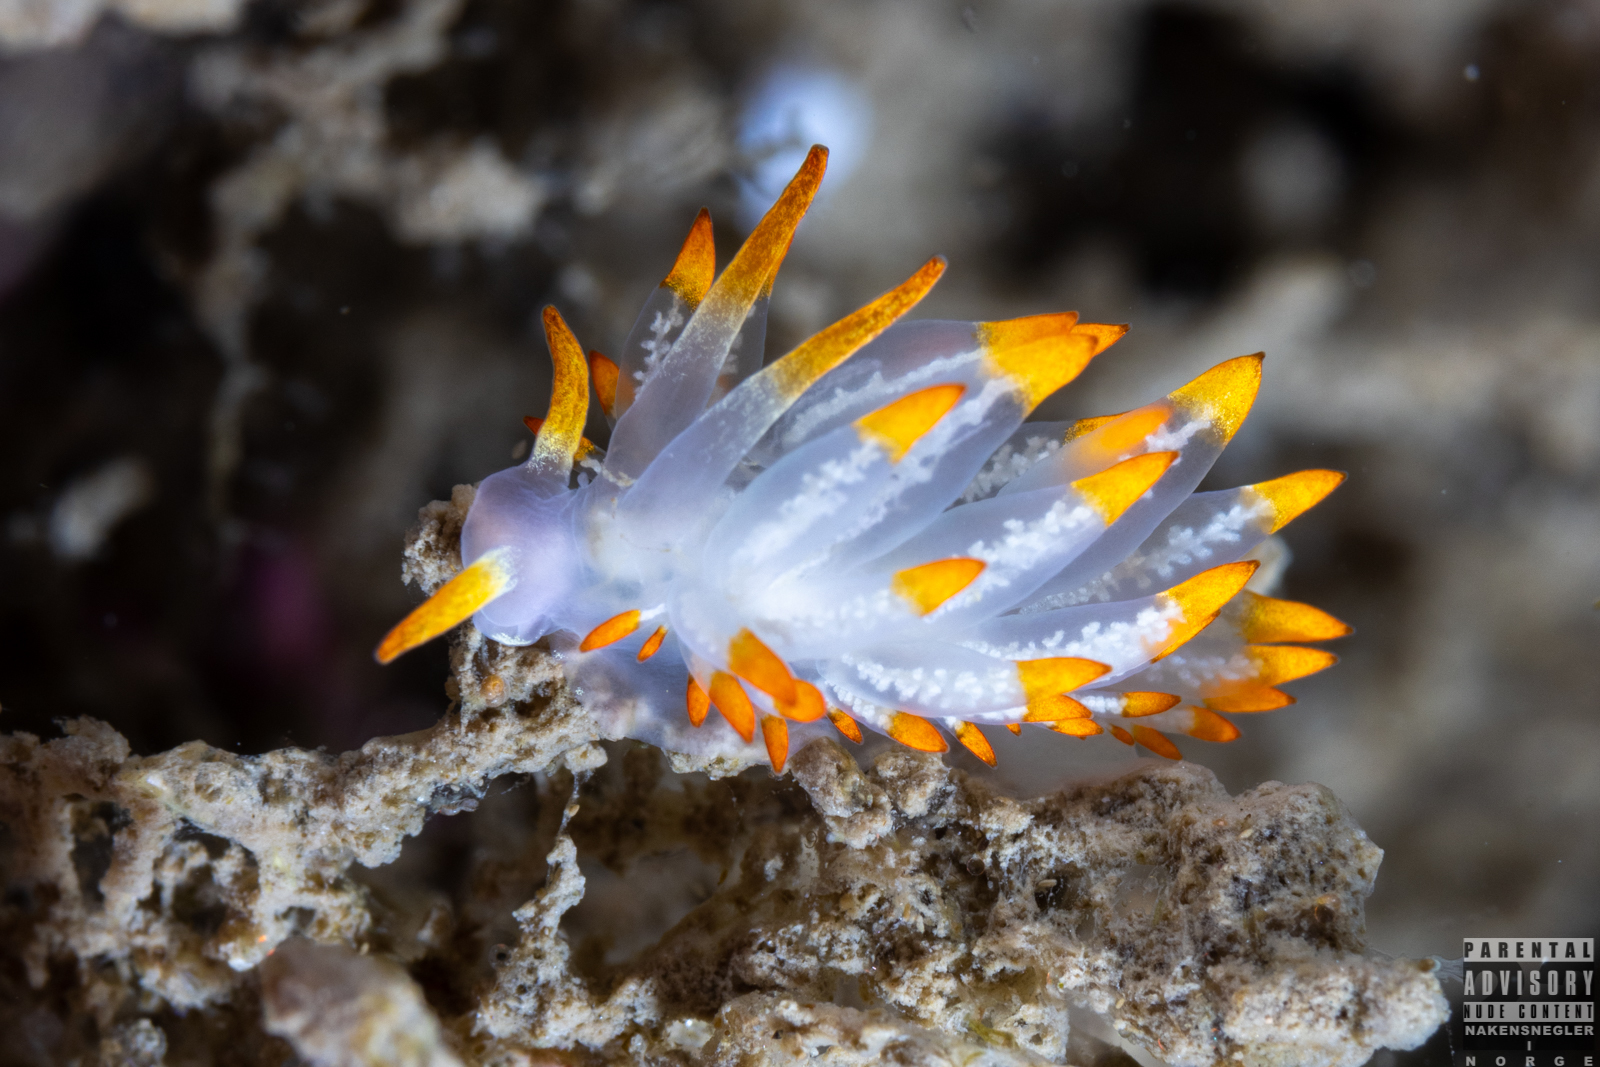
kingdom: Animalia
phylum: Mollusca
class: Gastropoda
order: Nudibranchia
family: Eubranchidae
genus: Amphorina
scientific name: Amphorina farrani
